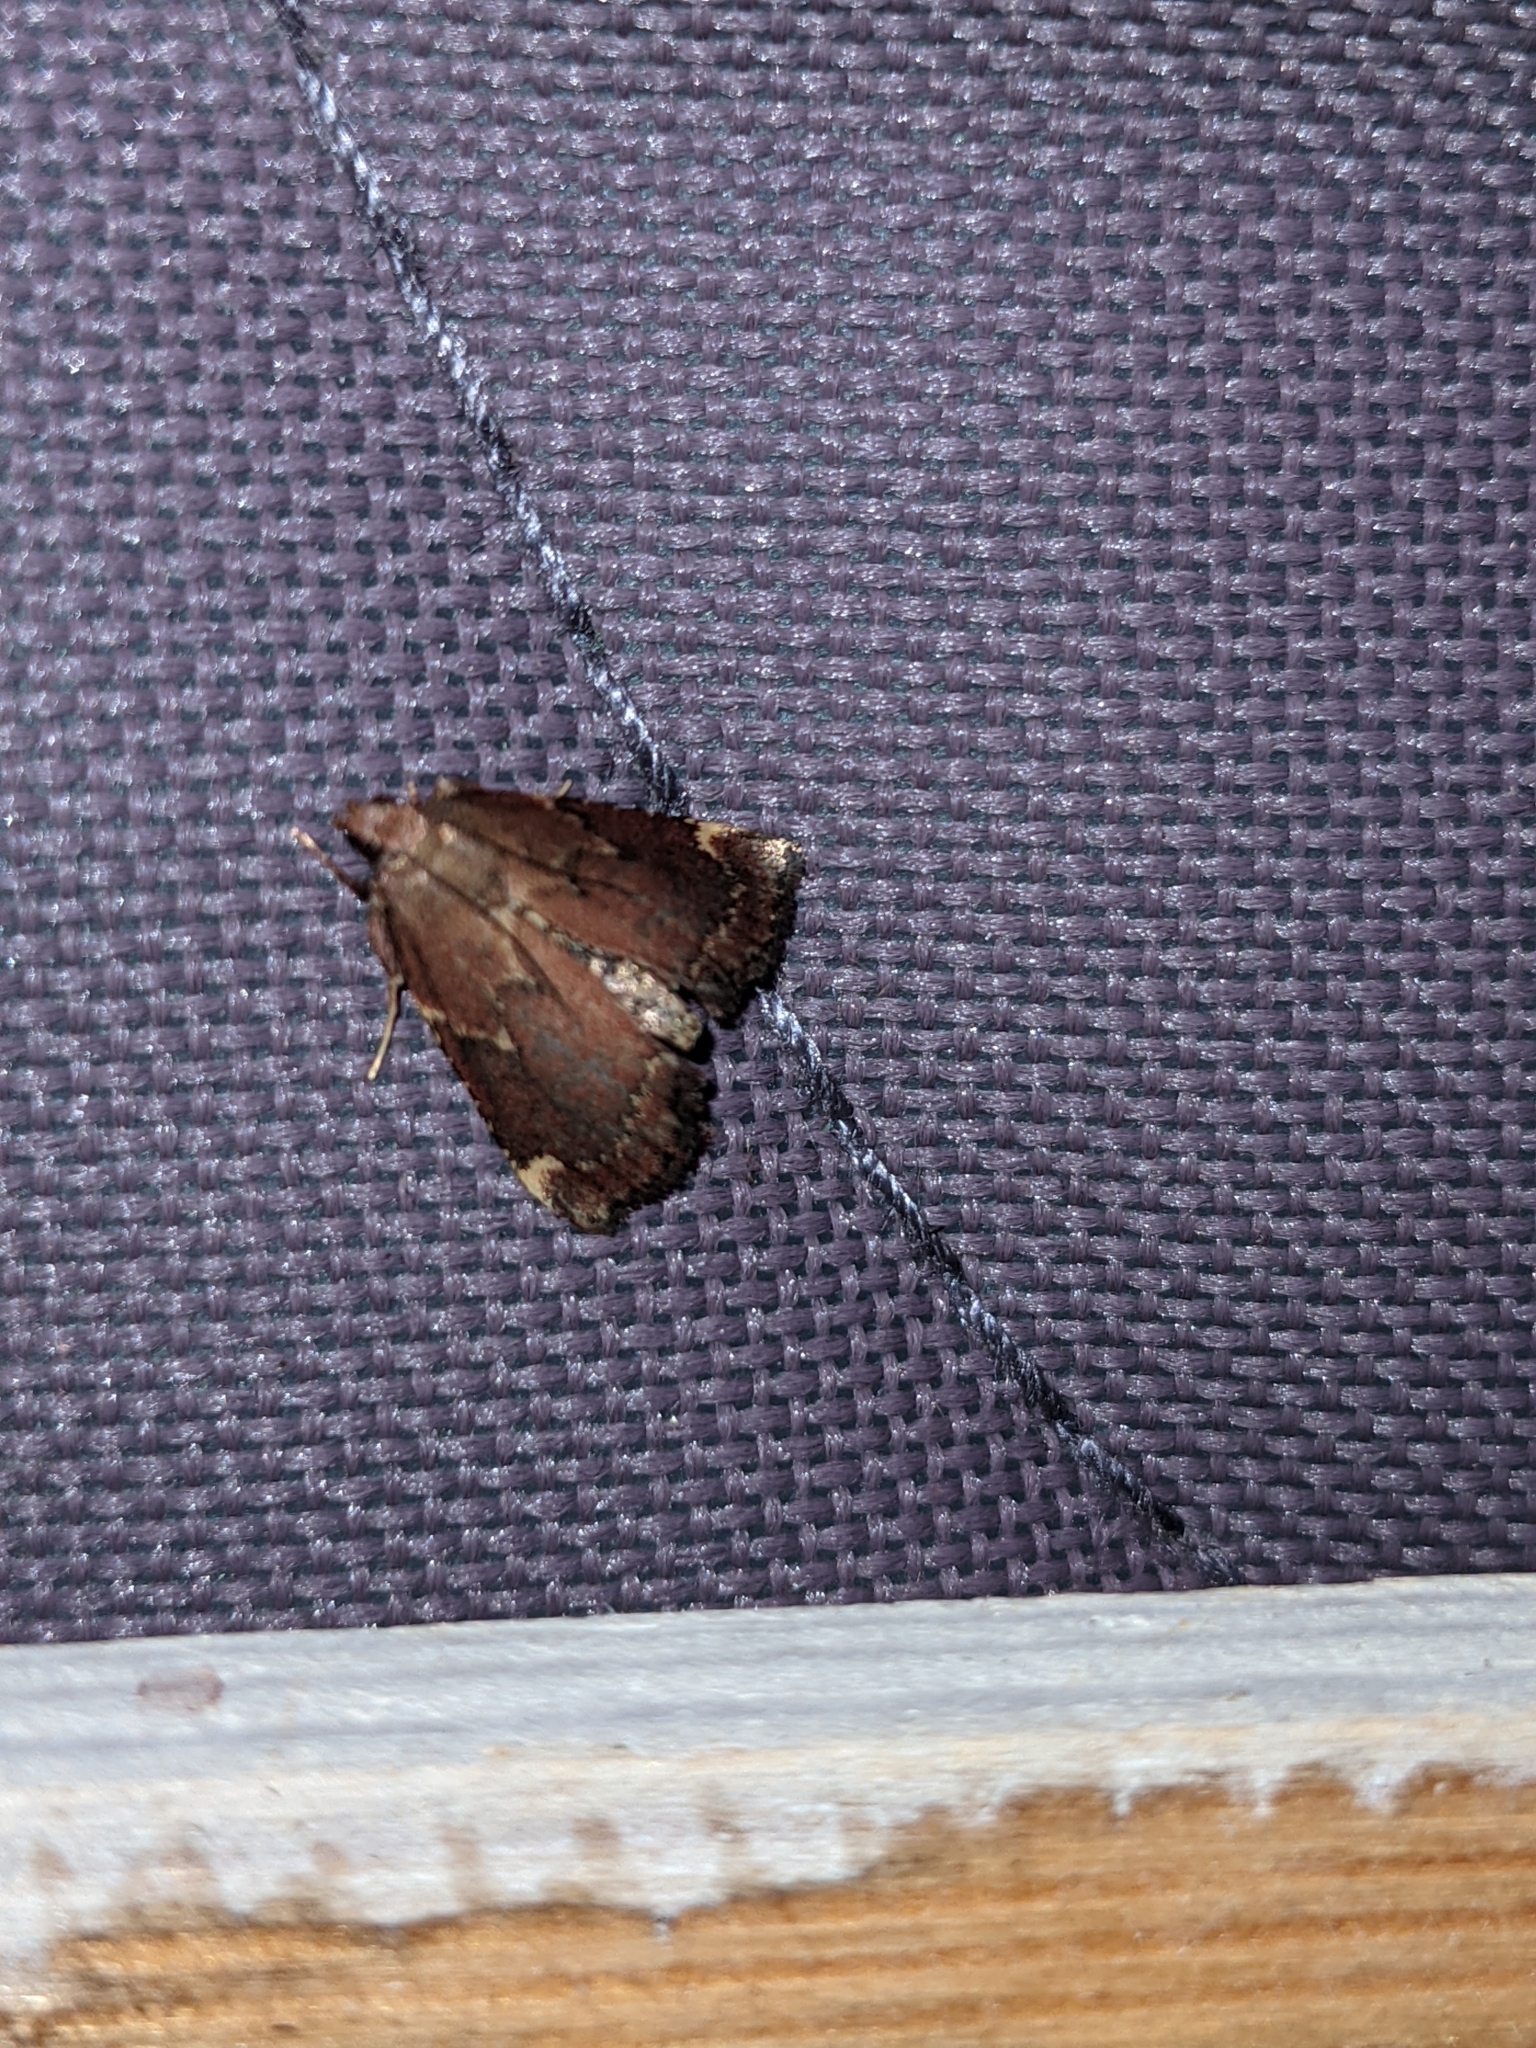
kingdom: Animalia
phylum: Arthropoda
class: Insecta
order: Lepidoptera
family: Pyralidae
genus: Hypsopygia
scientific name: Hypsopygia intermedialis
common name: Red-shawled moth
